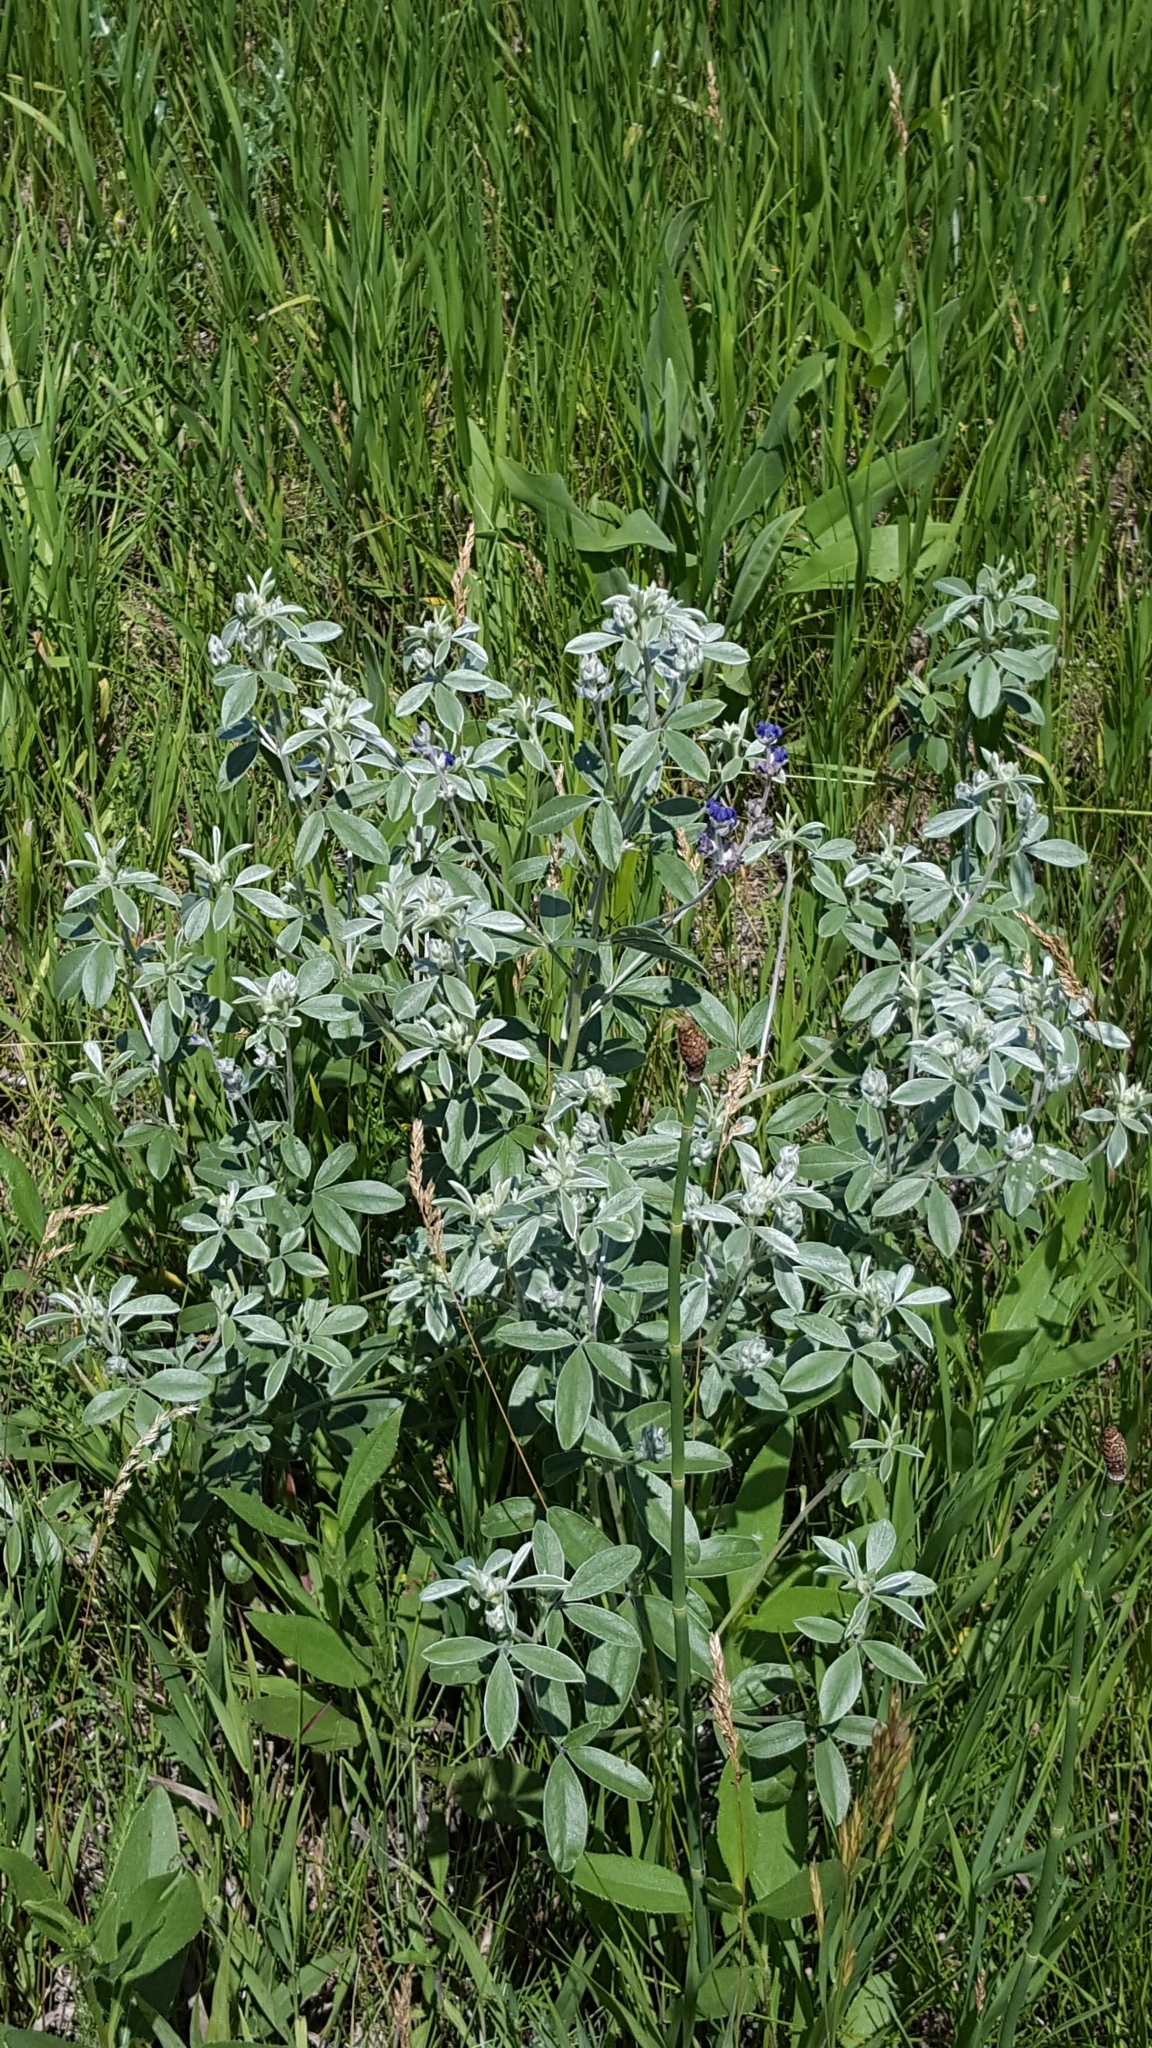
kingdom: Plantae
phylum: Tracheophyta
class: Magnoliopsida
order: Fabales
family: Fabaceae
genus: Pediomelum
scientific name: Pediomelum argophyllum
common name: Silver-leaved indian breadroot
